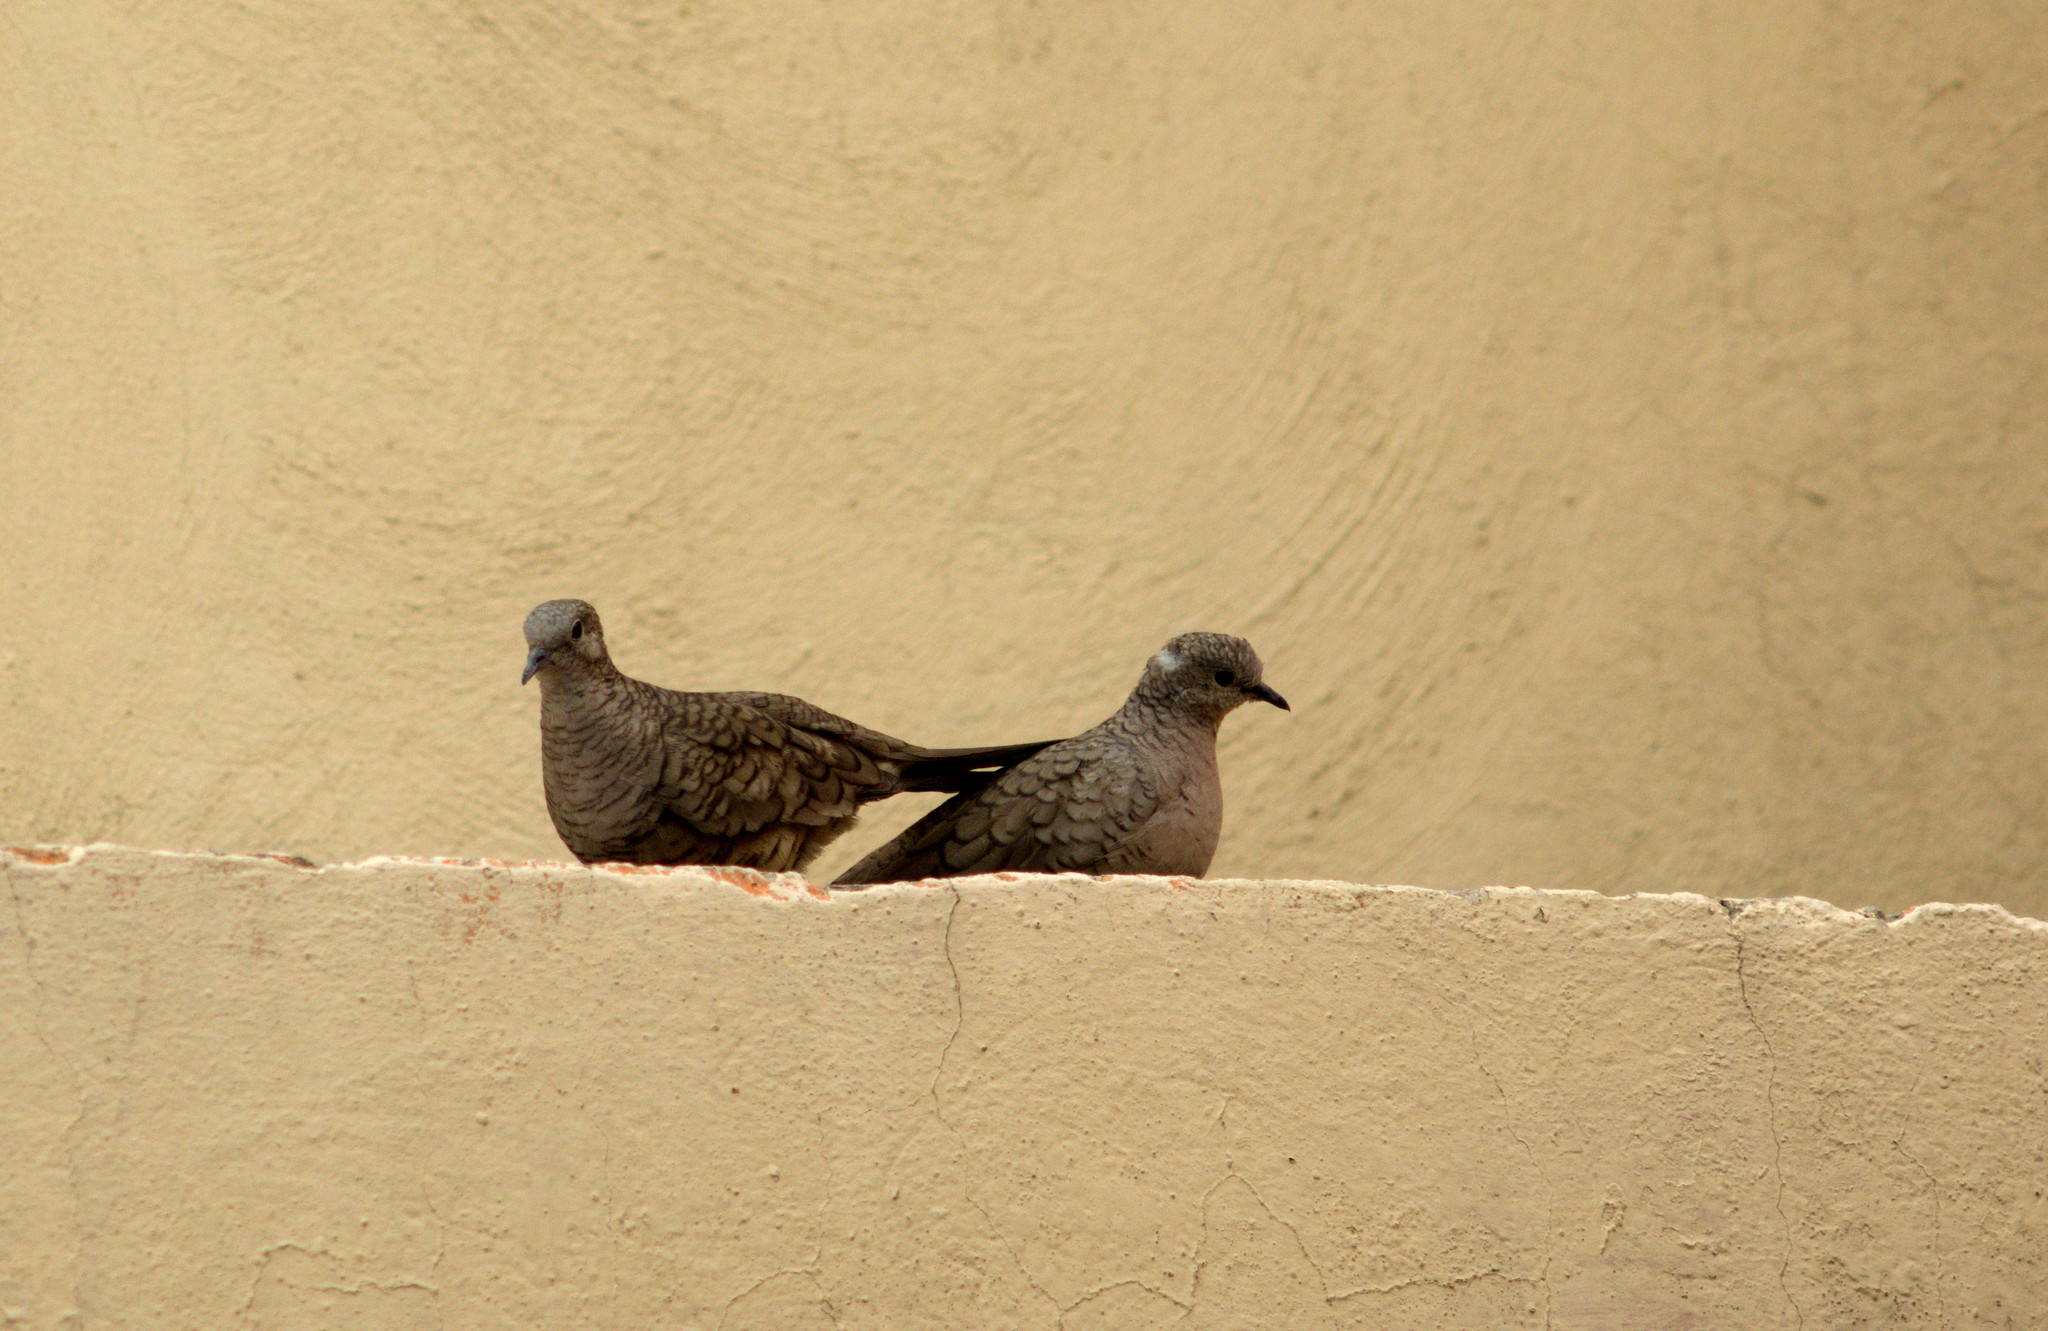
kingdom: Animalia
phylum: Chordata
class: Aves
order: Columbiformes
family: Columbidae
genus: Columbina
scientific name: Columbina inca
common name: Inca dove
